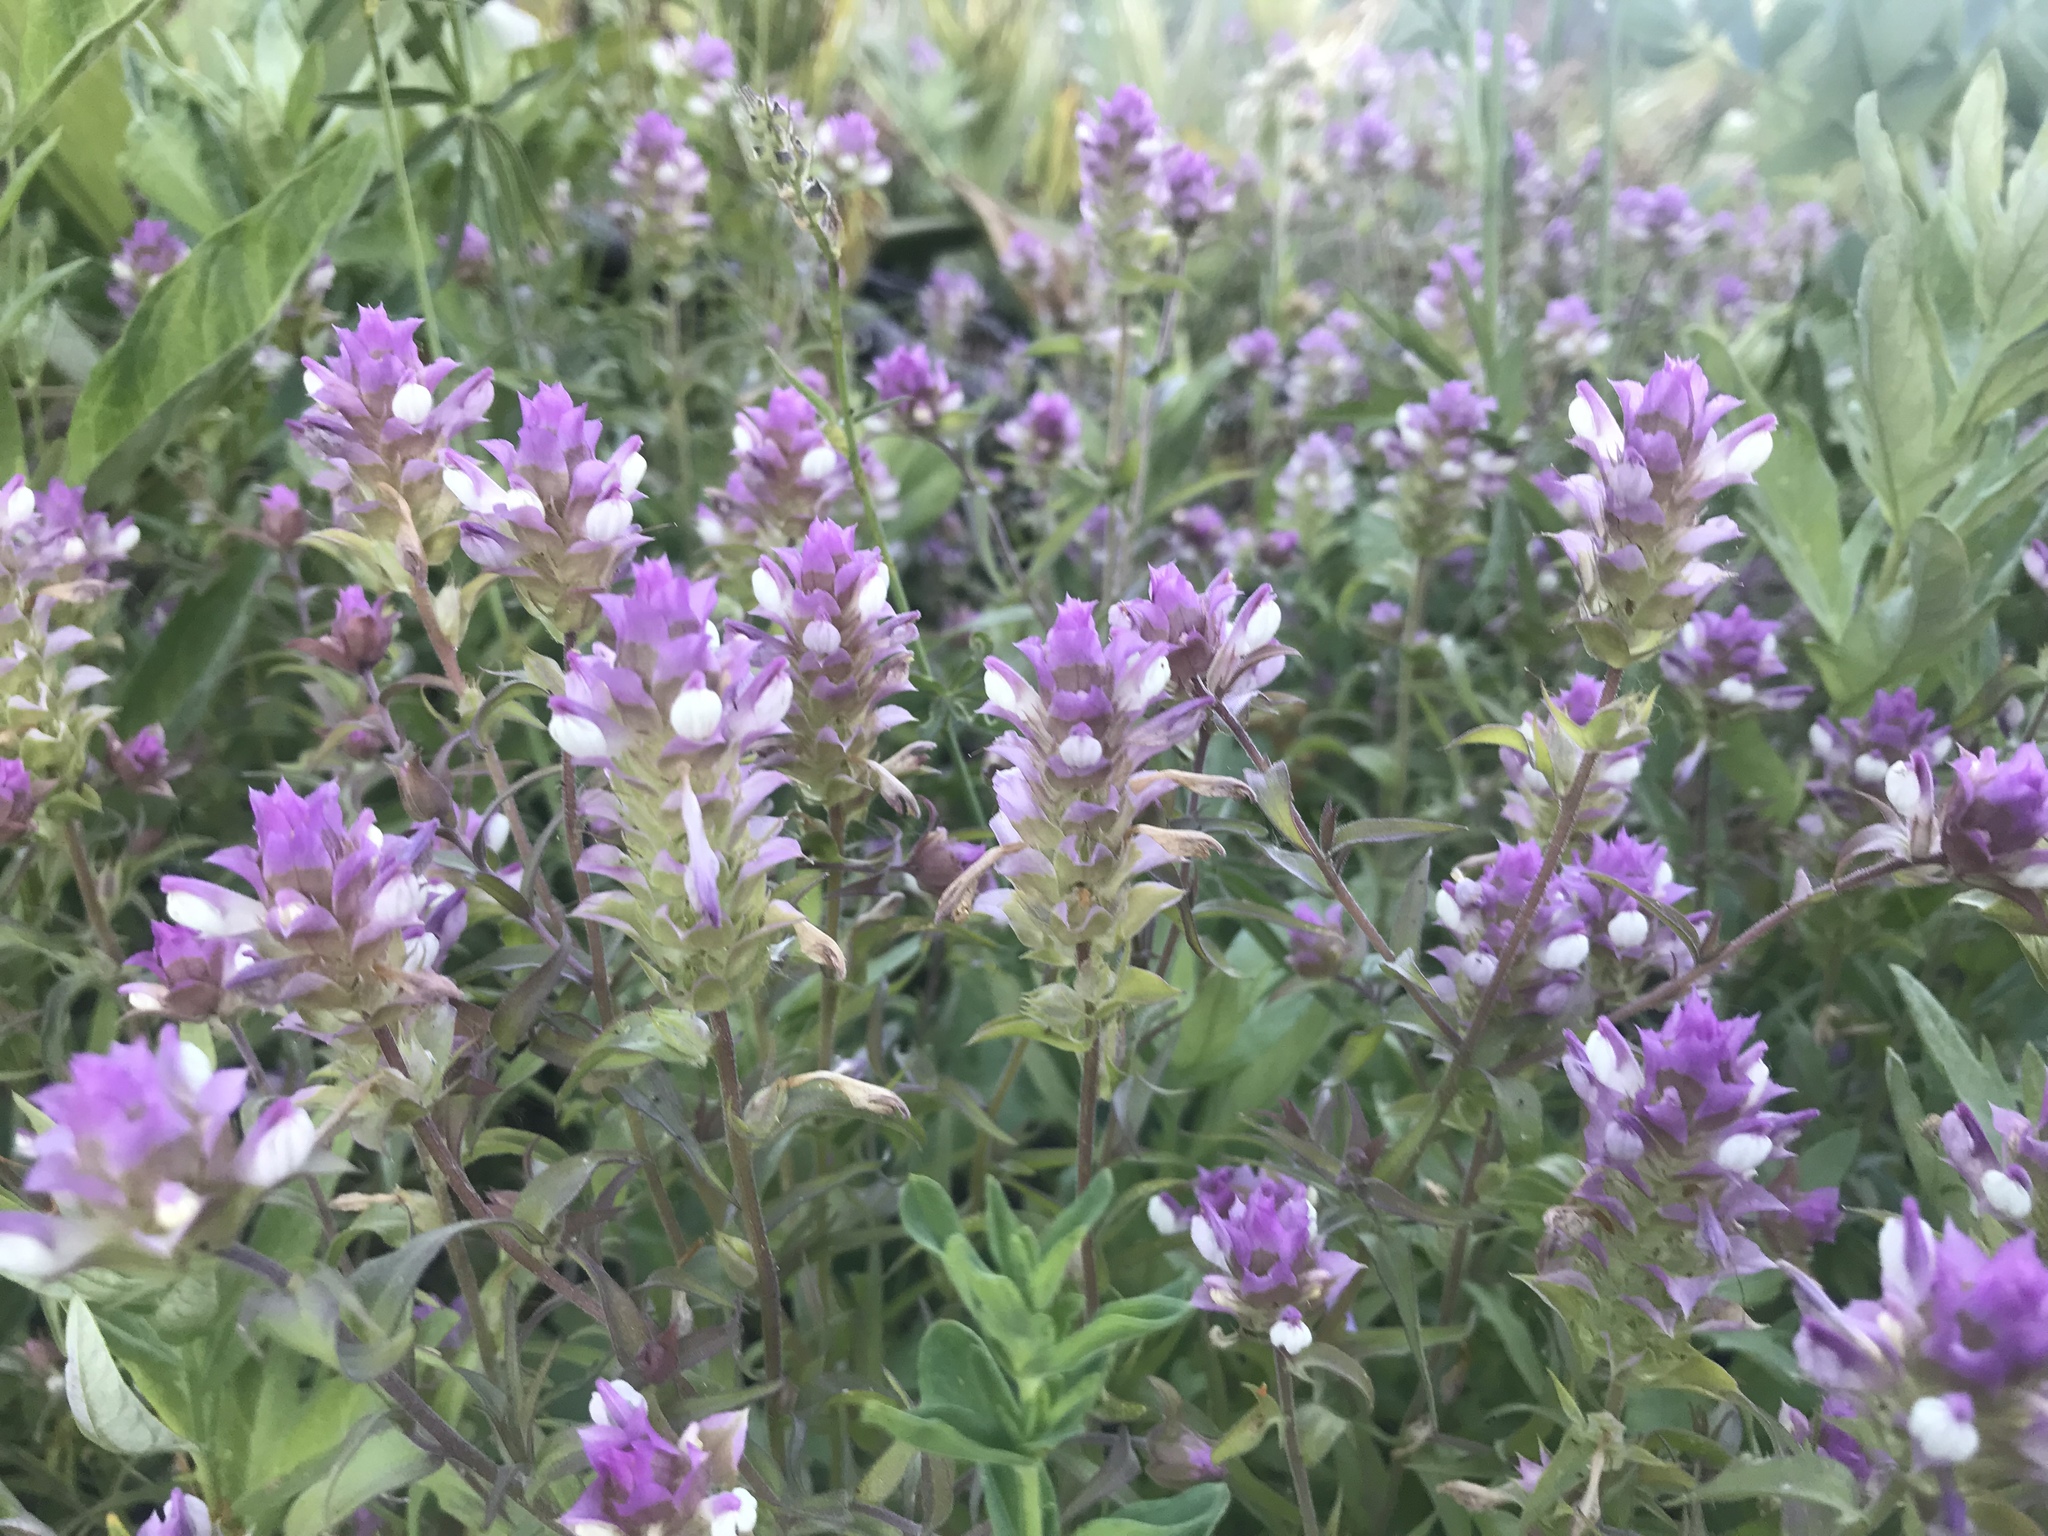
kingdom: Plantae
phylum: Tracheophyta
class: Magnoliopsida
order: Lamiales
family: Orobanchaceae
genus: Orthocarpus
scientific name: Orthocarpus cuspidatus
